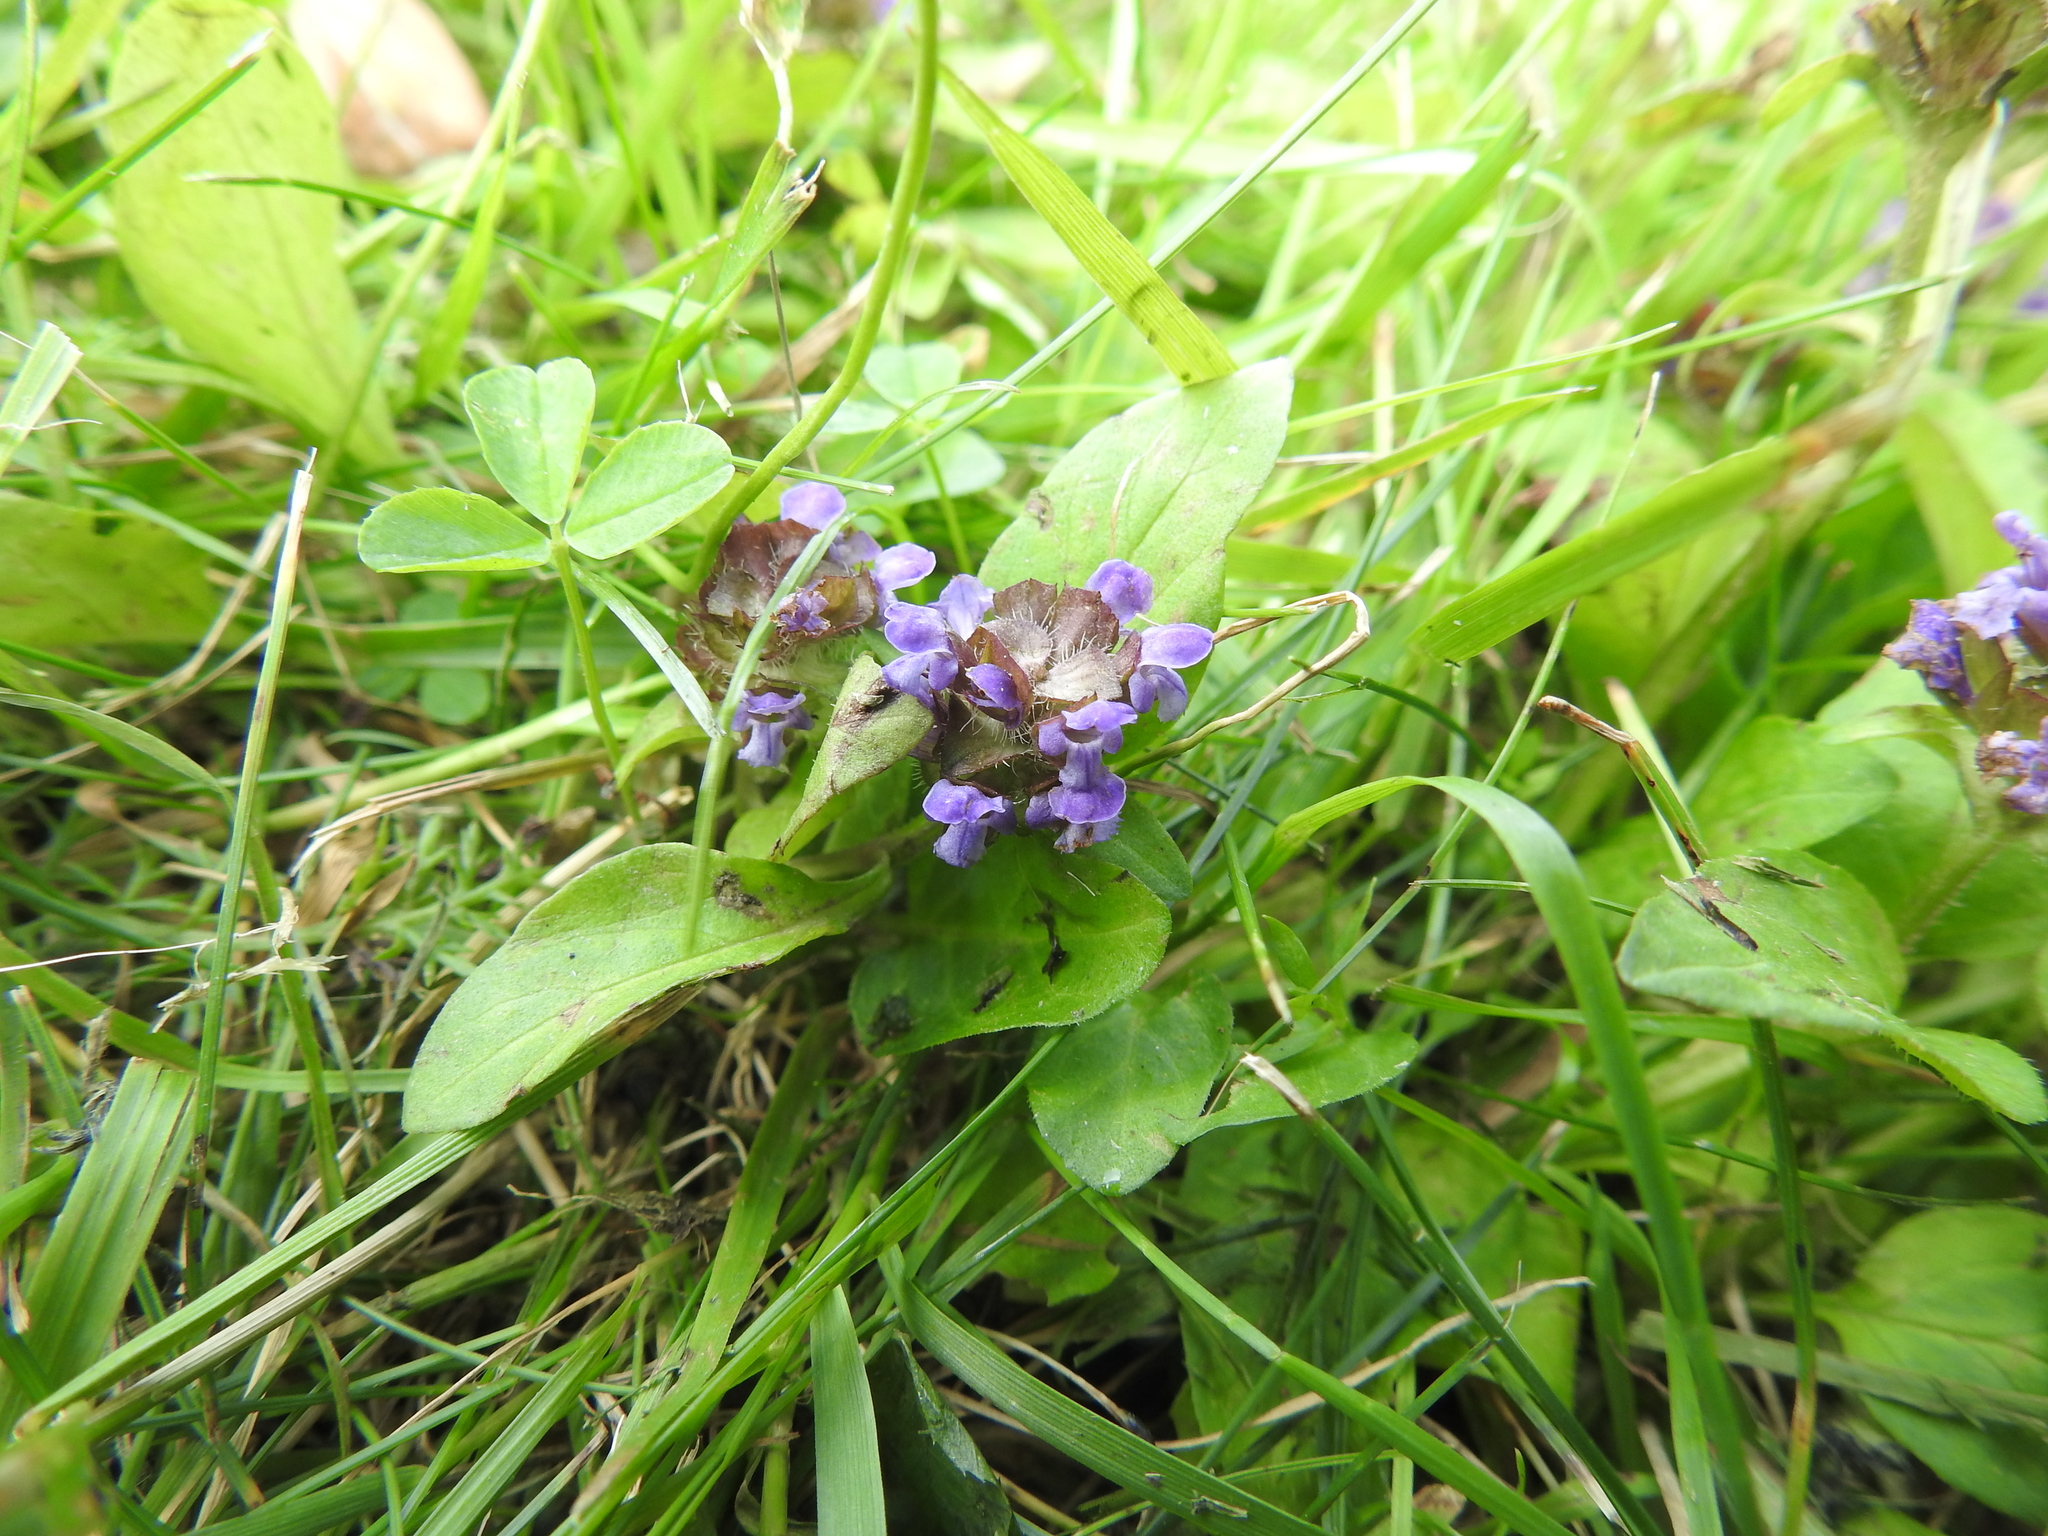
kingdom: Plantae
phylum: Tracheophyta
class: Magnoliopsida
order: Lamiales
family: Lamiaceae
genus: Prunella
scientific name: Prunella vulgaris
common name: Heal-all
